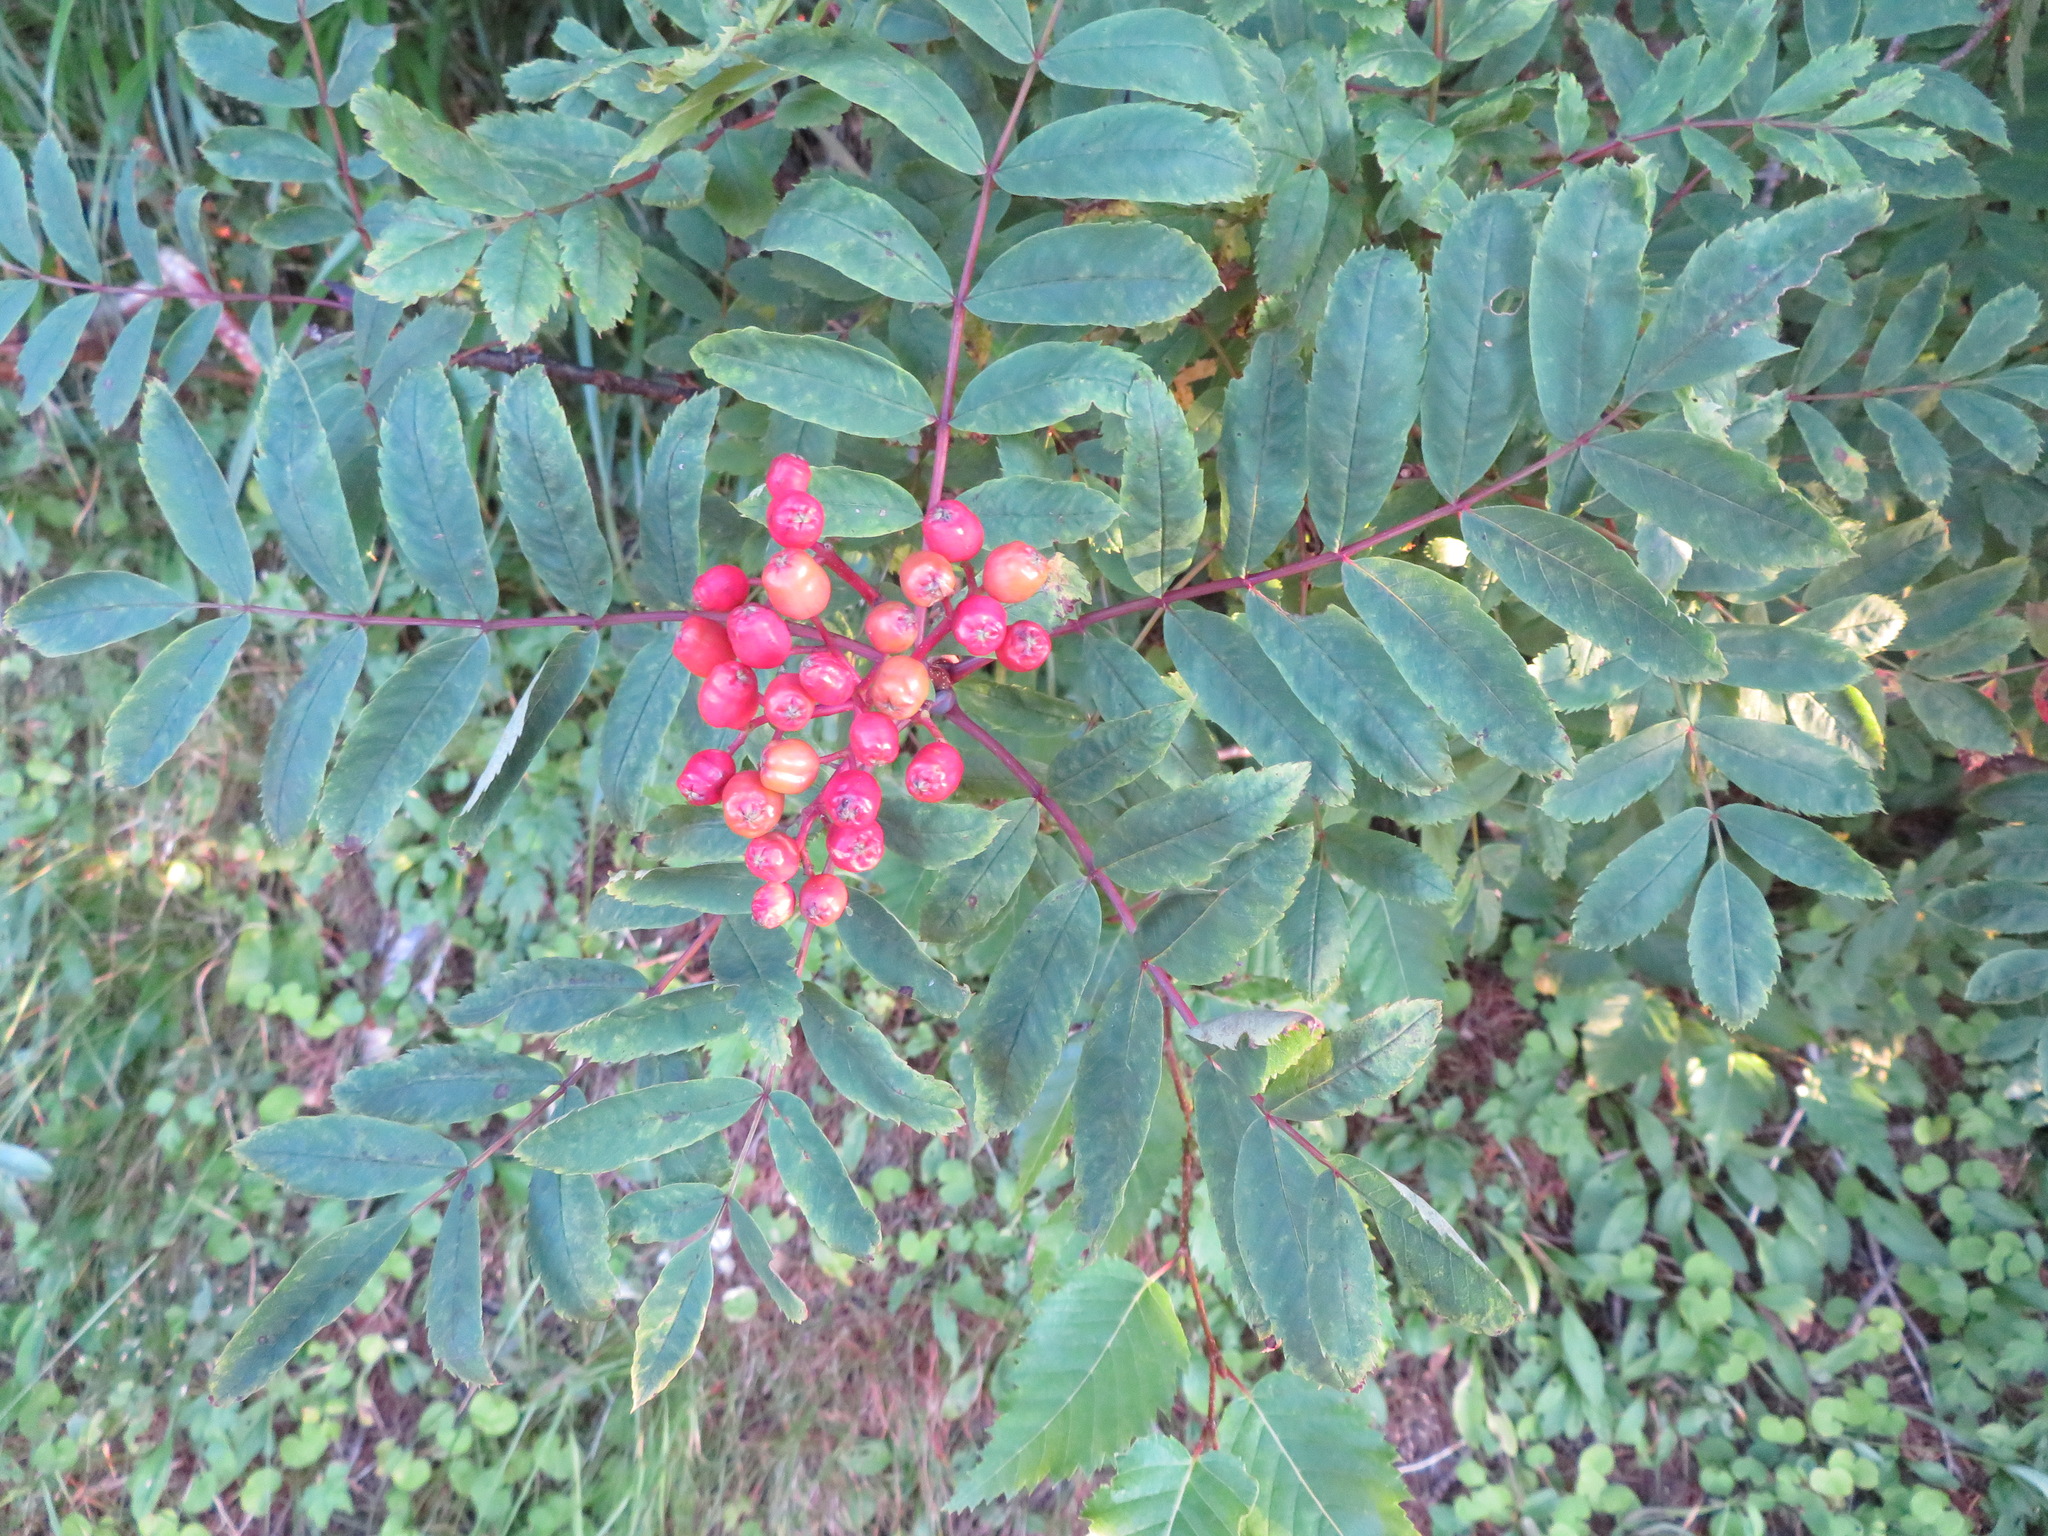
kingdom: Plantae
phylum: Tracheophyta
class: Magnoliopsida
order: Rosales
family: Rosaceae
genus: Sorbus
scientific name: Sorbus matsumurana
